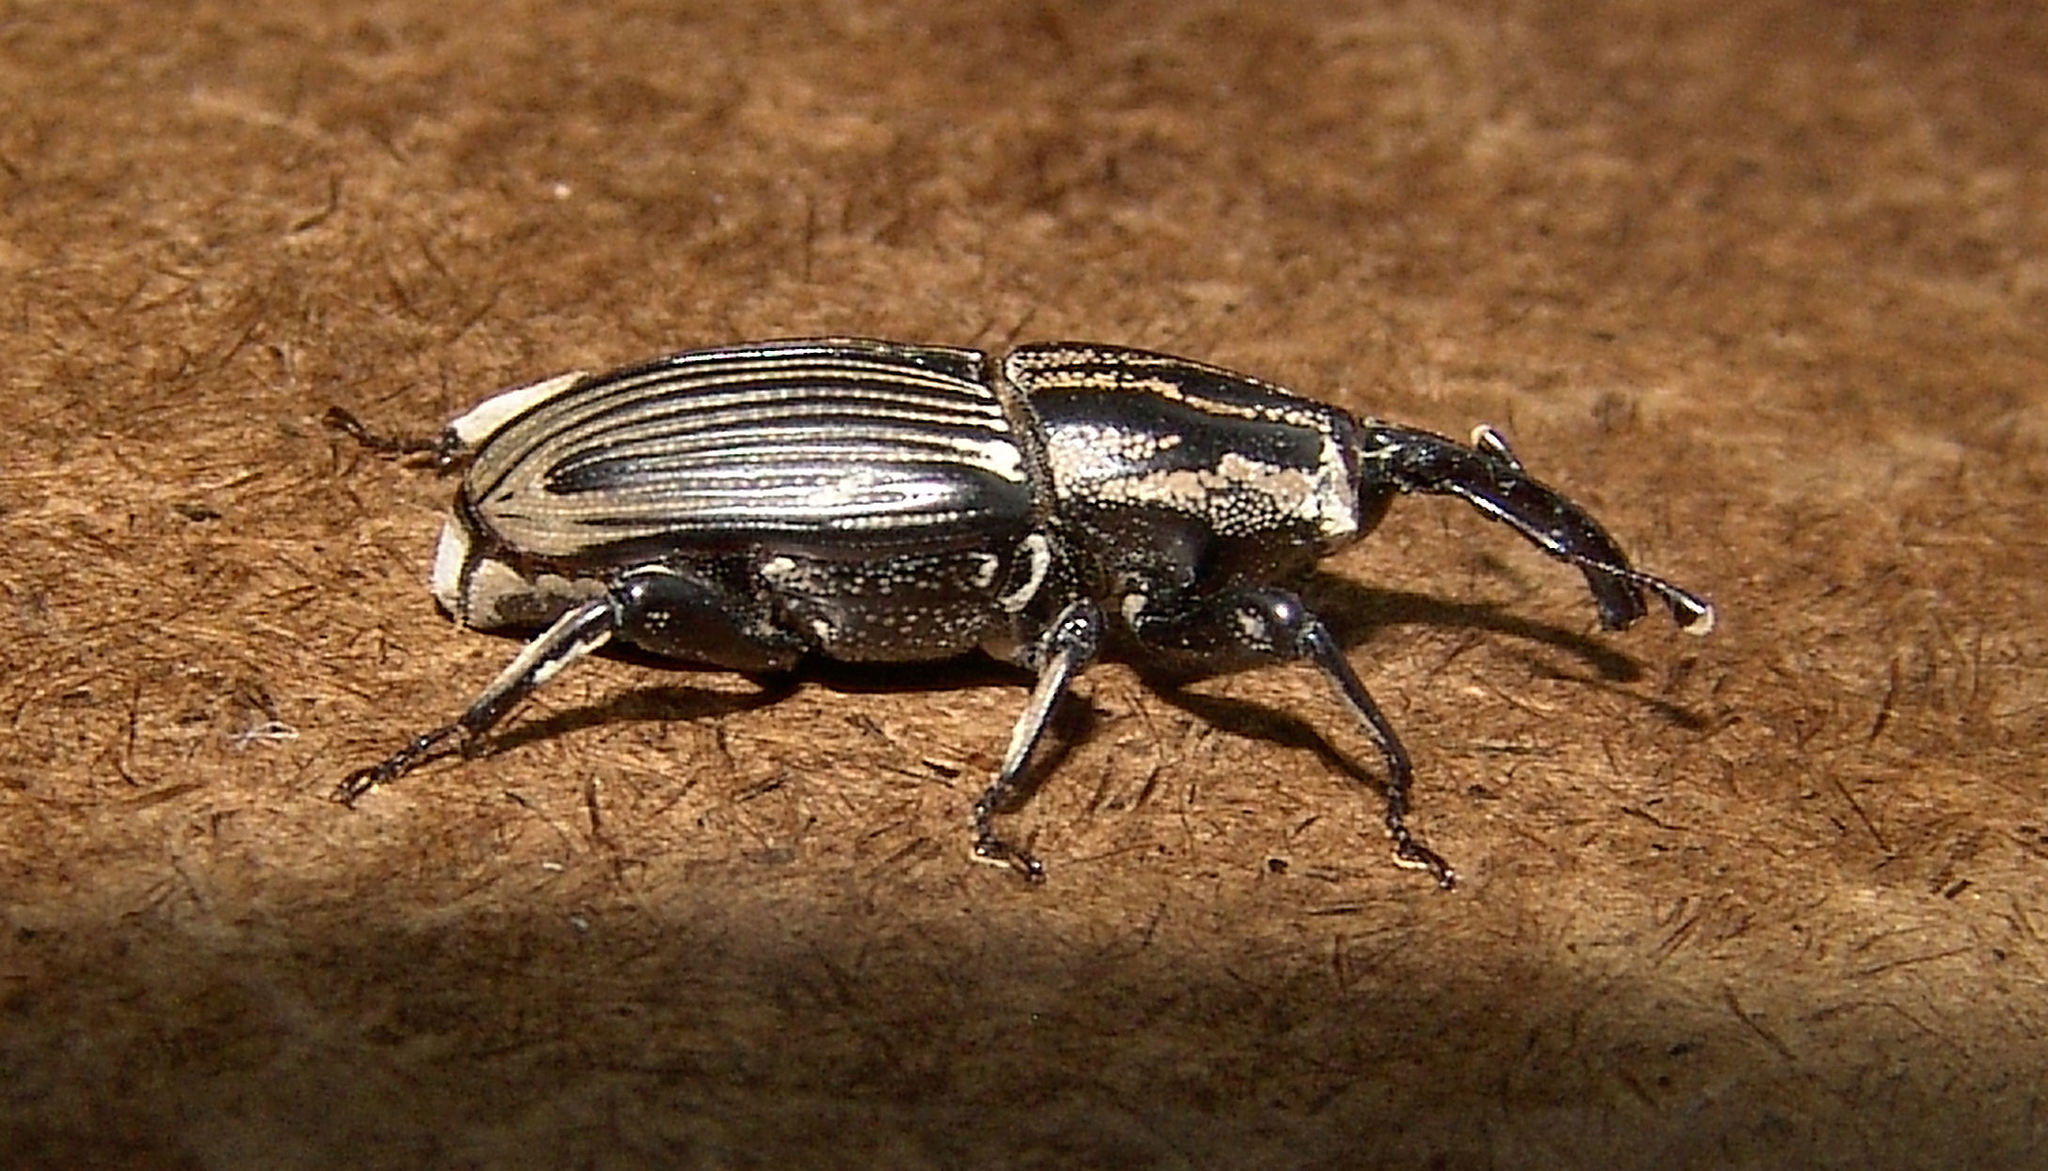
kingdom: Animalia
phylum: Arthropoda
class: Insecta
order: Coleoptera
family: Dryophthoridae
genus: Sphenophorus
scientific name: Sphenophorus pertinax
